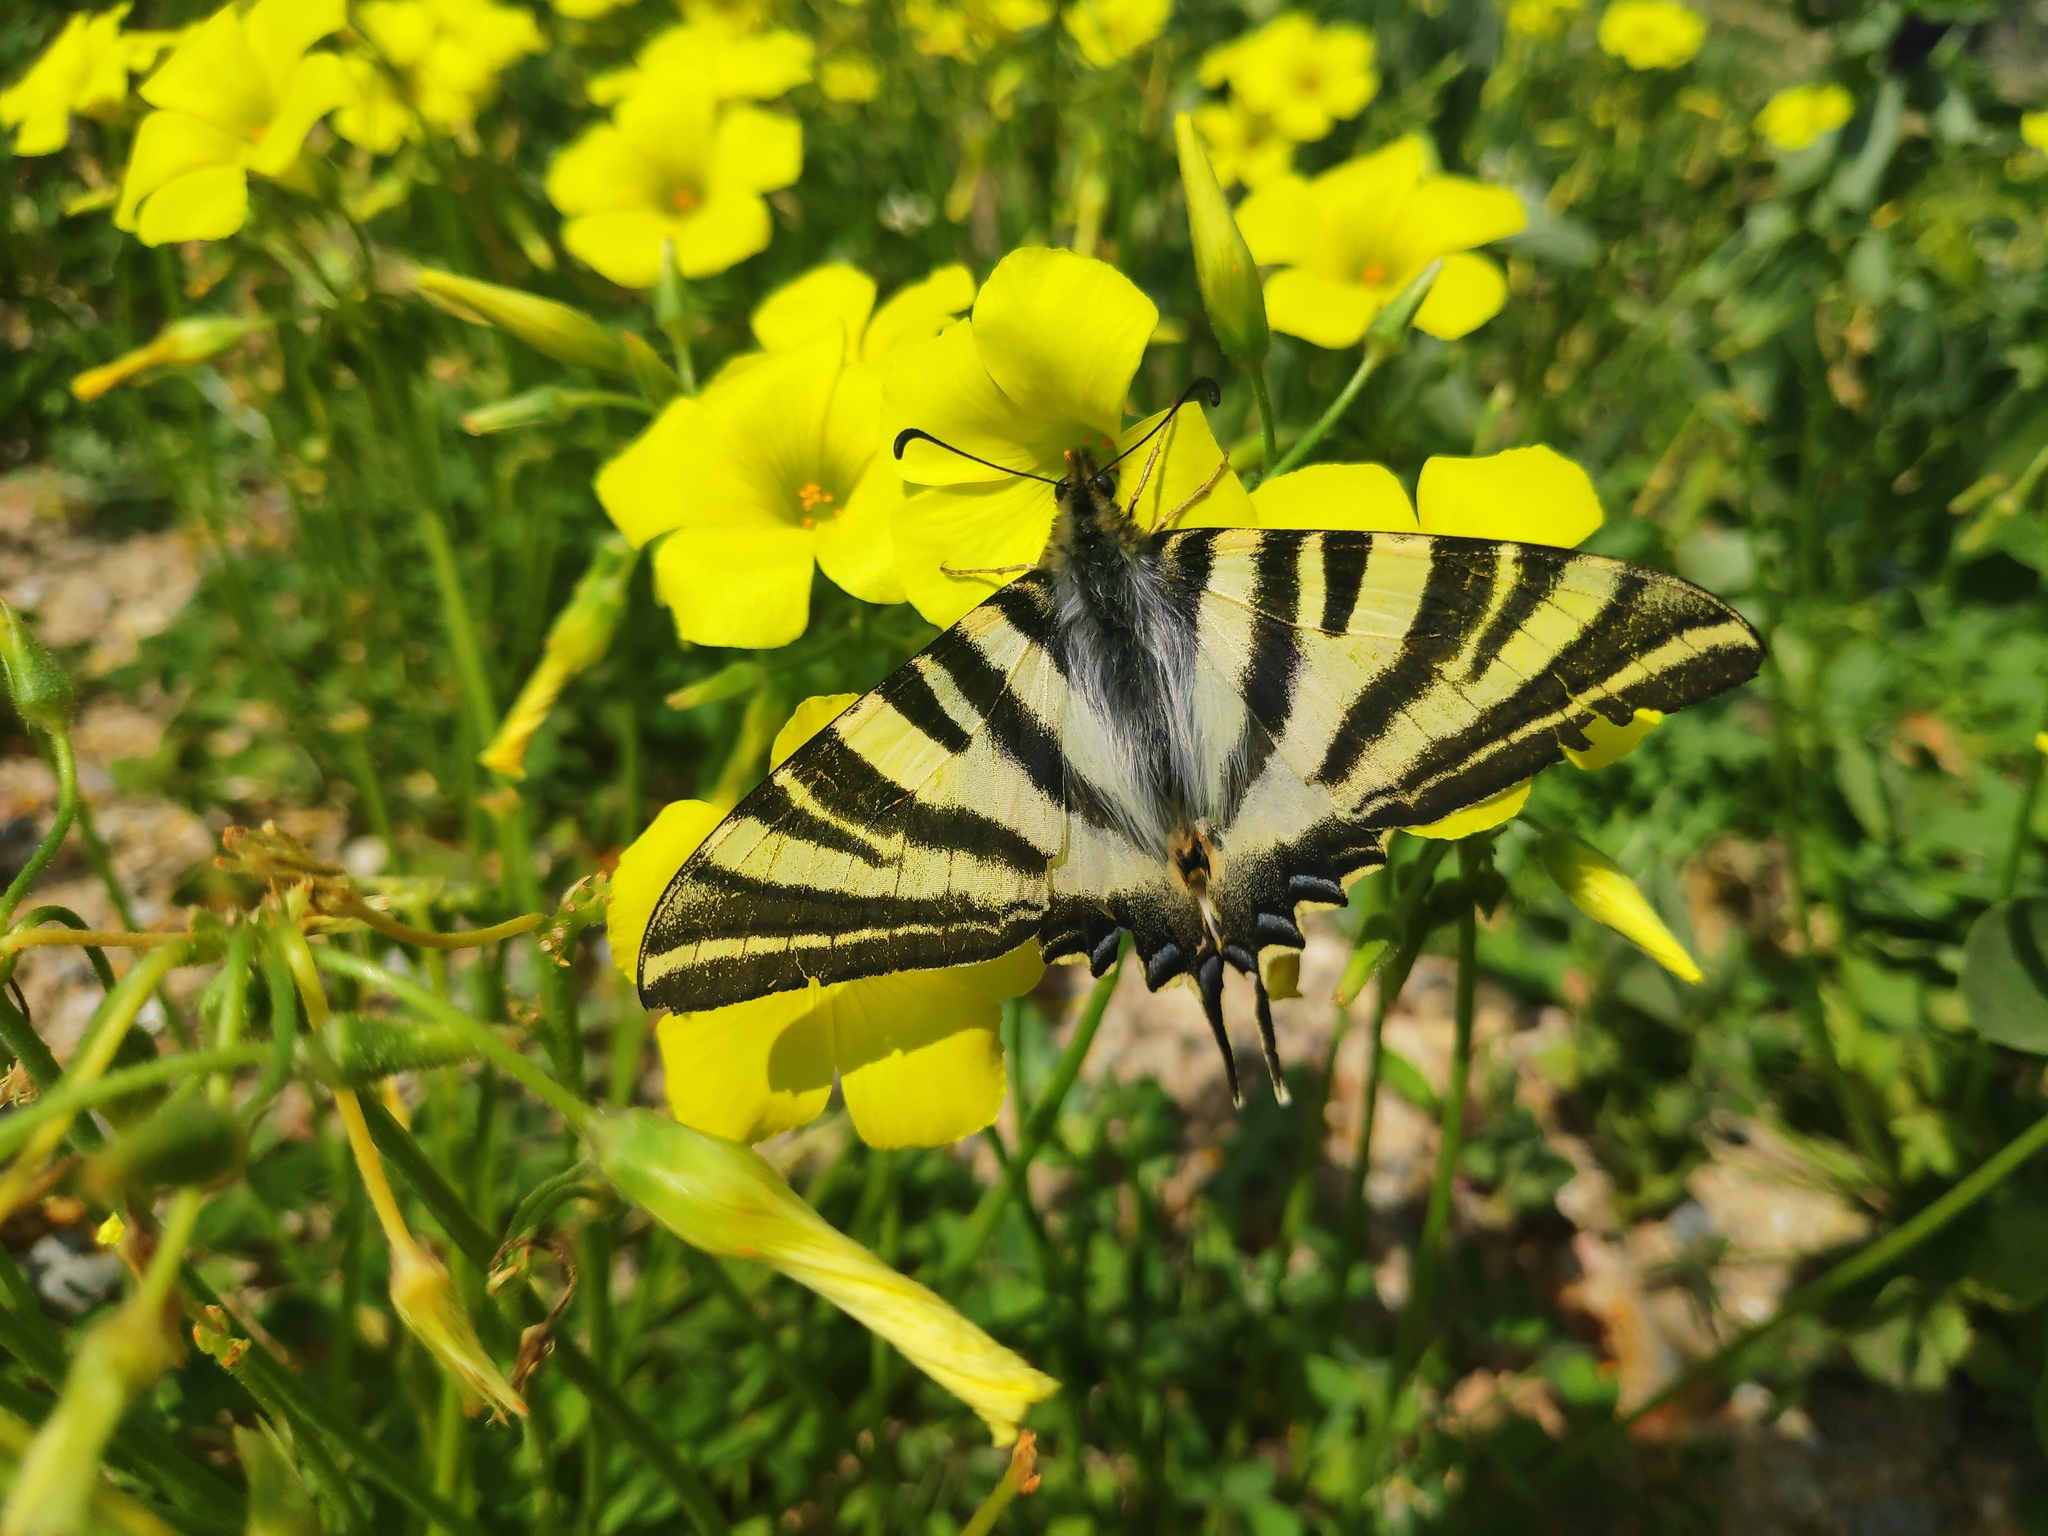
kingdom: Animalia
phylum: Arthropoda
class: Insecta
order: Lepidoptera
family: Papilionidae
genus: Iphiclides
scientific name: Iphiclides feisthamelii
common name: Iberian scarce swallowtail
